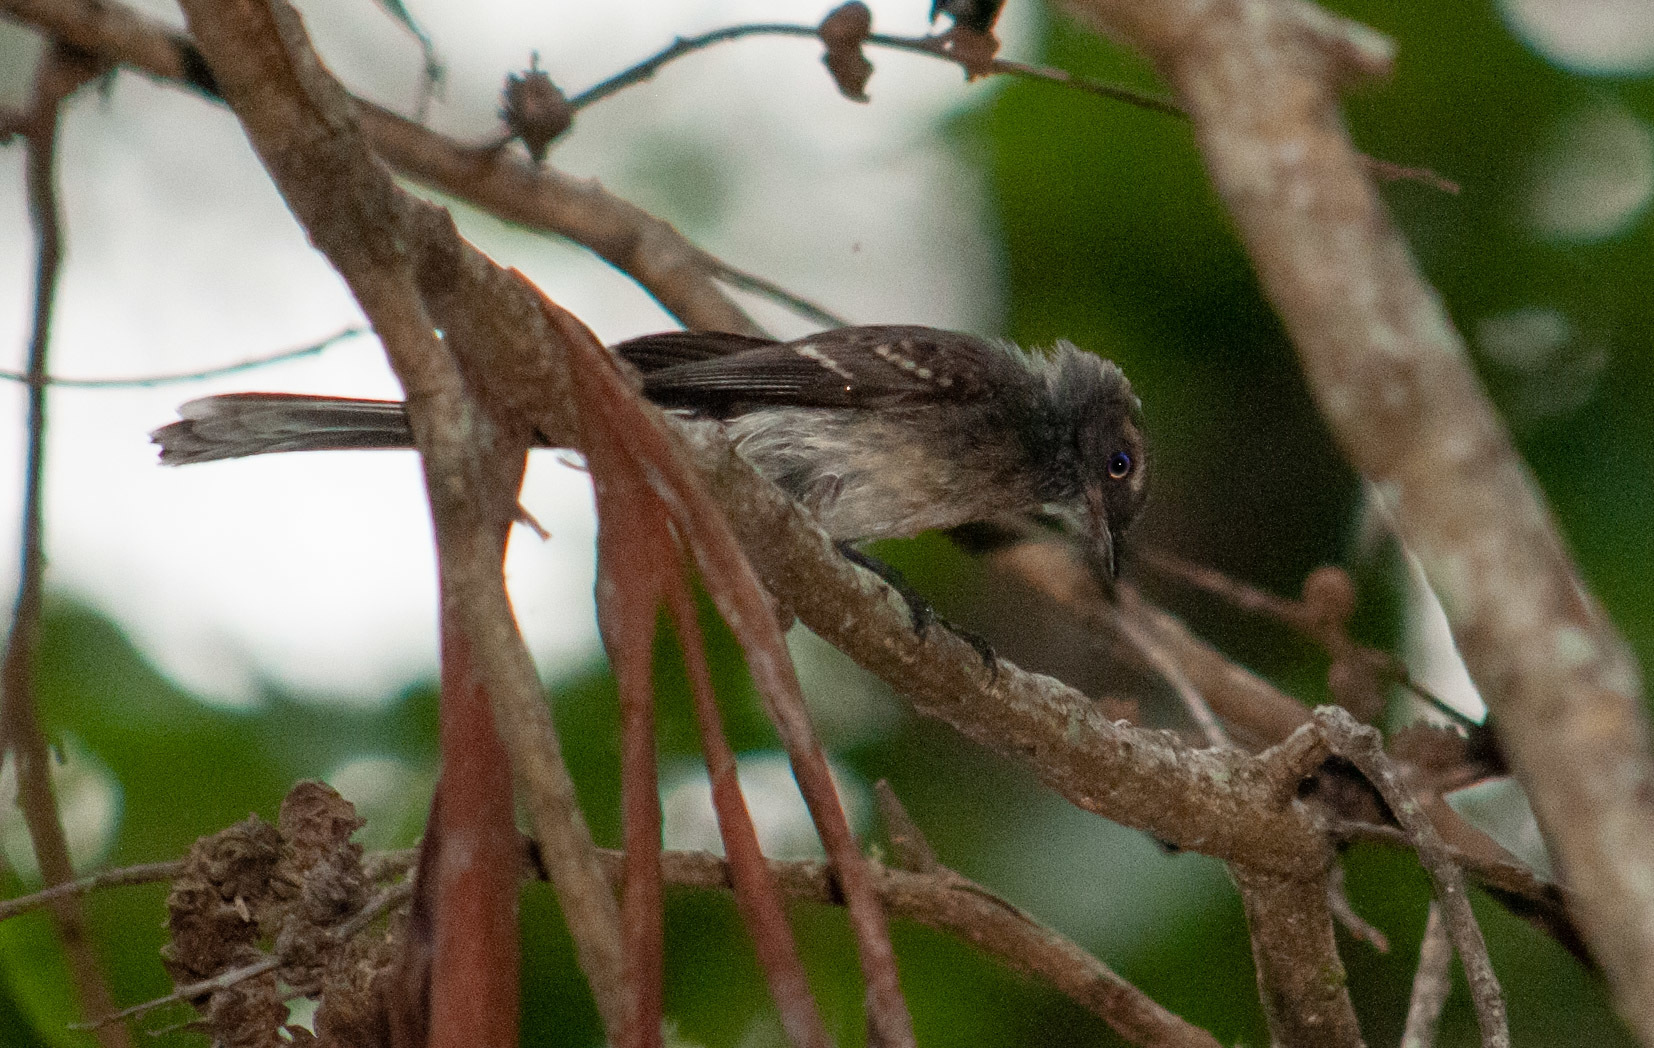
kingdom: Animalia
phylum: Chordata
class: Aves
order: Passeriformes
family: Rhipiduridae
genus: Rhipidura
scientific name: Rhipidura albiscapa
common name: Grey fantail
